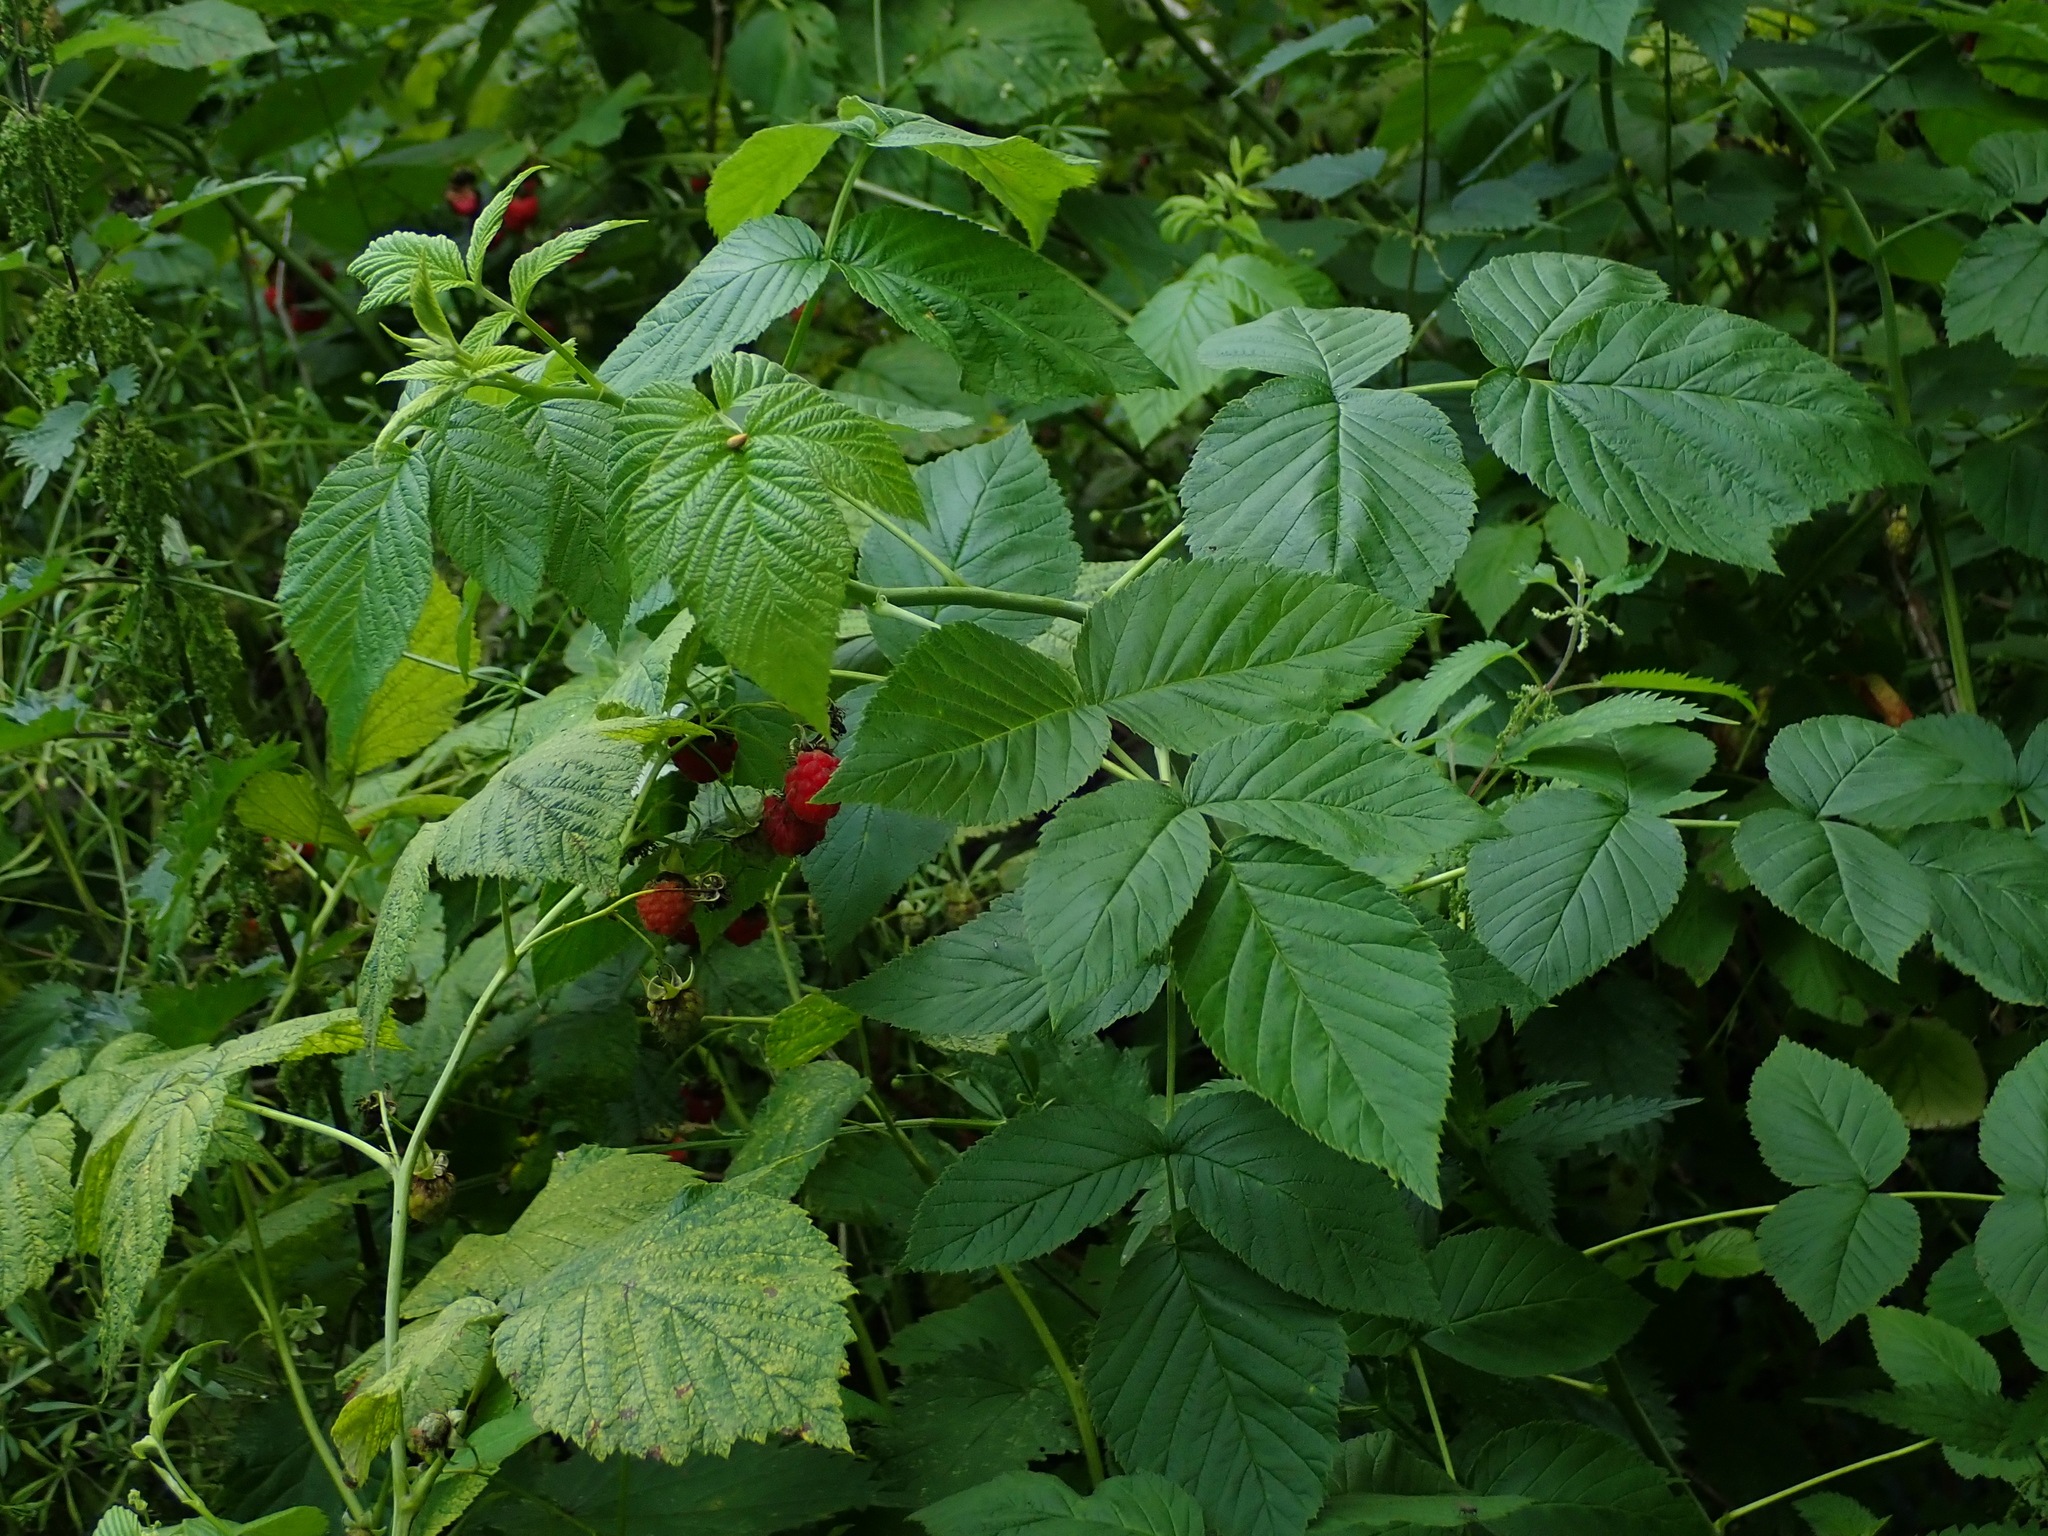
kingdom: Plantae
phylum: Tracheophyta
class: Magnoliopsida
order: Rosales
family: Rosaceae
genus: Rubus
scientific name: Rubus idaeus
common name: Raspberry
